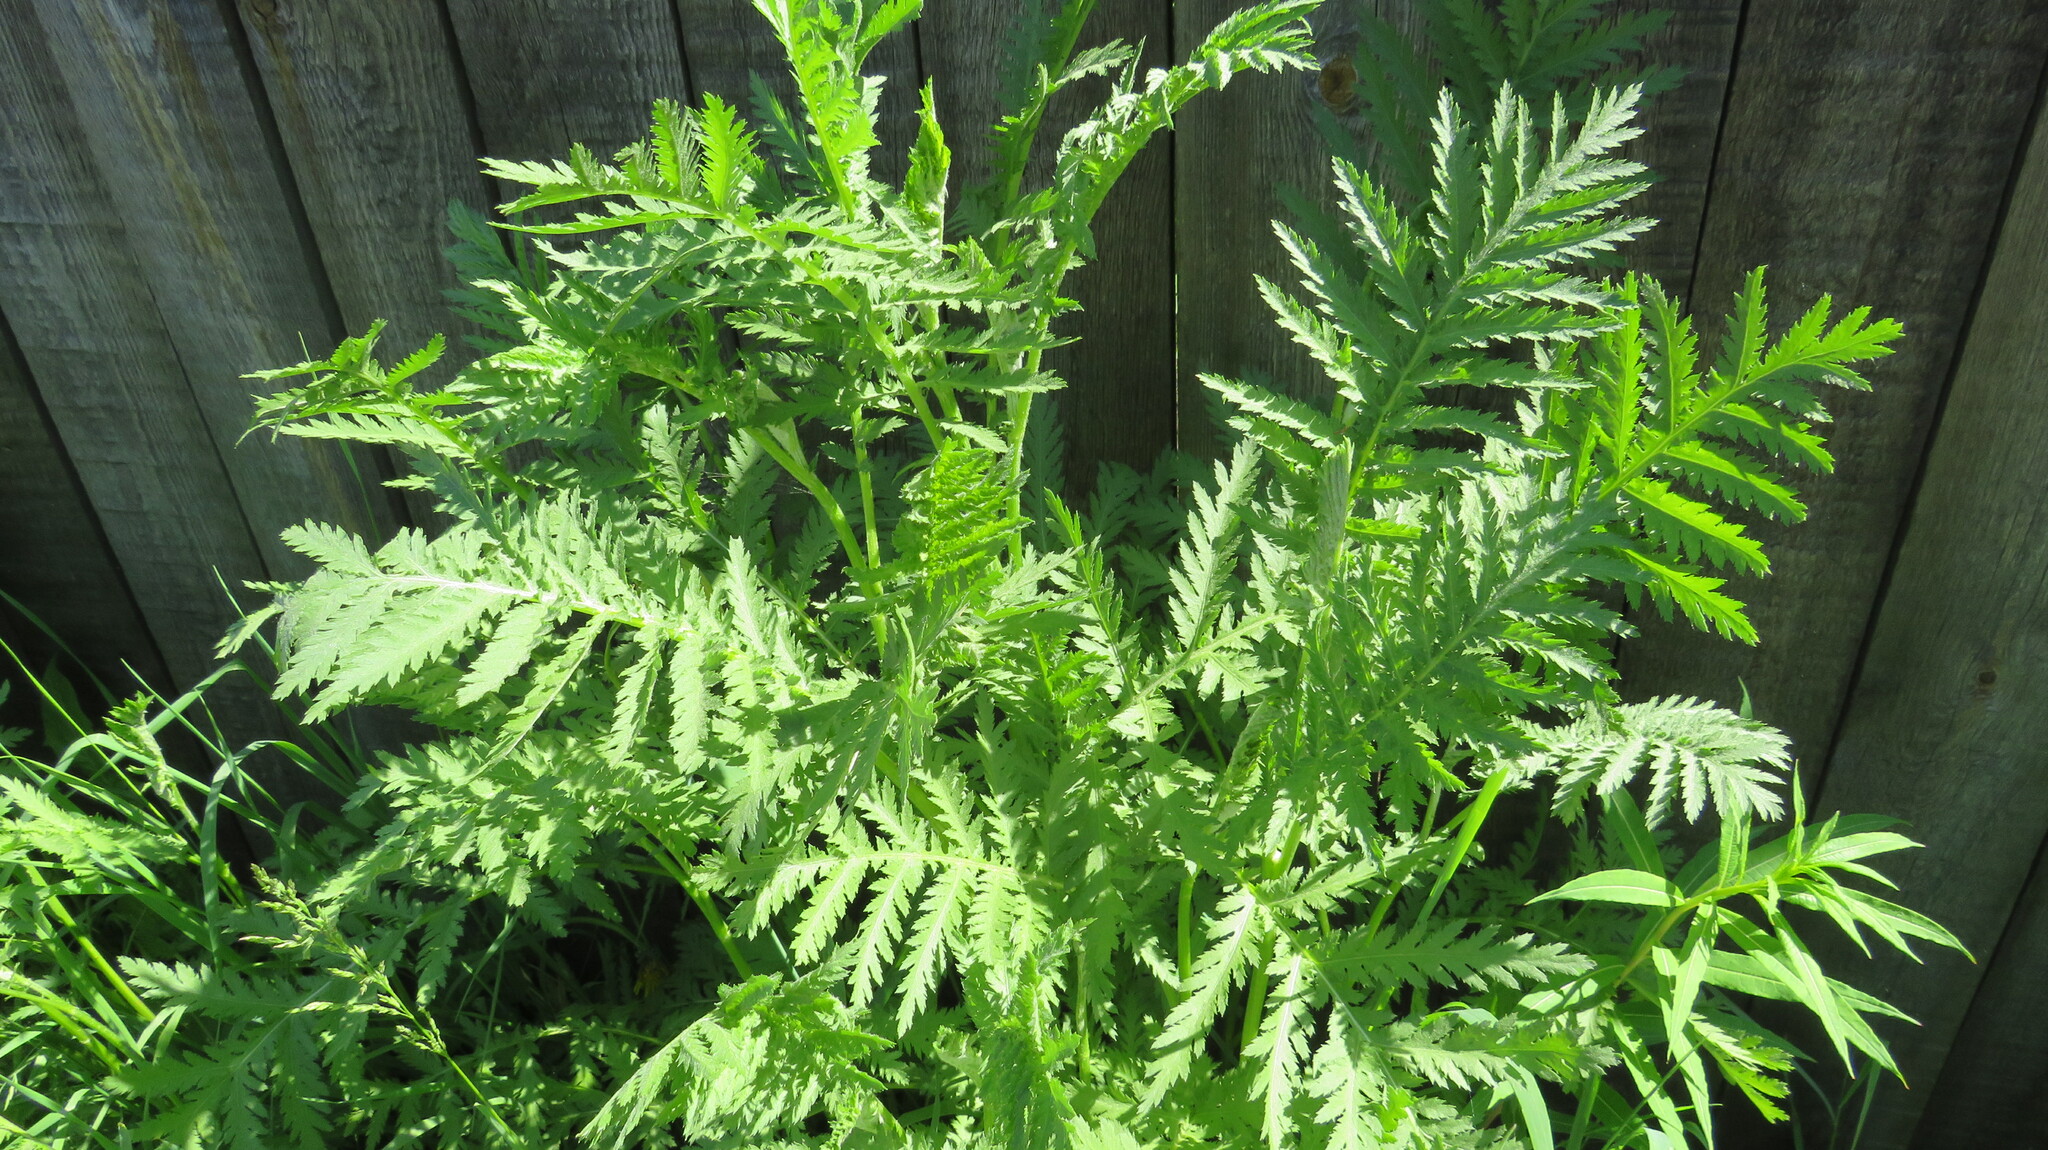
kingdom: Plantae
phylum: Tracheophyta
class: Magnoliopsida
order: Asterales
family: Asteraceae
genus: Tanacetum
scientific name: Tanacetum vulgare
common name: Common tansy
